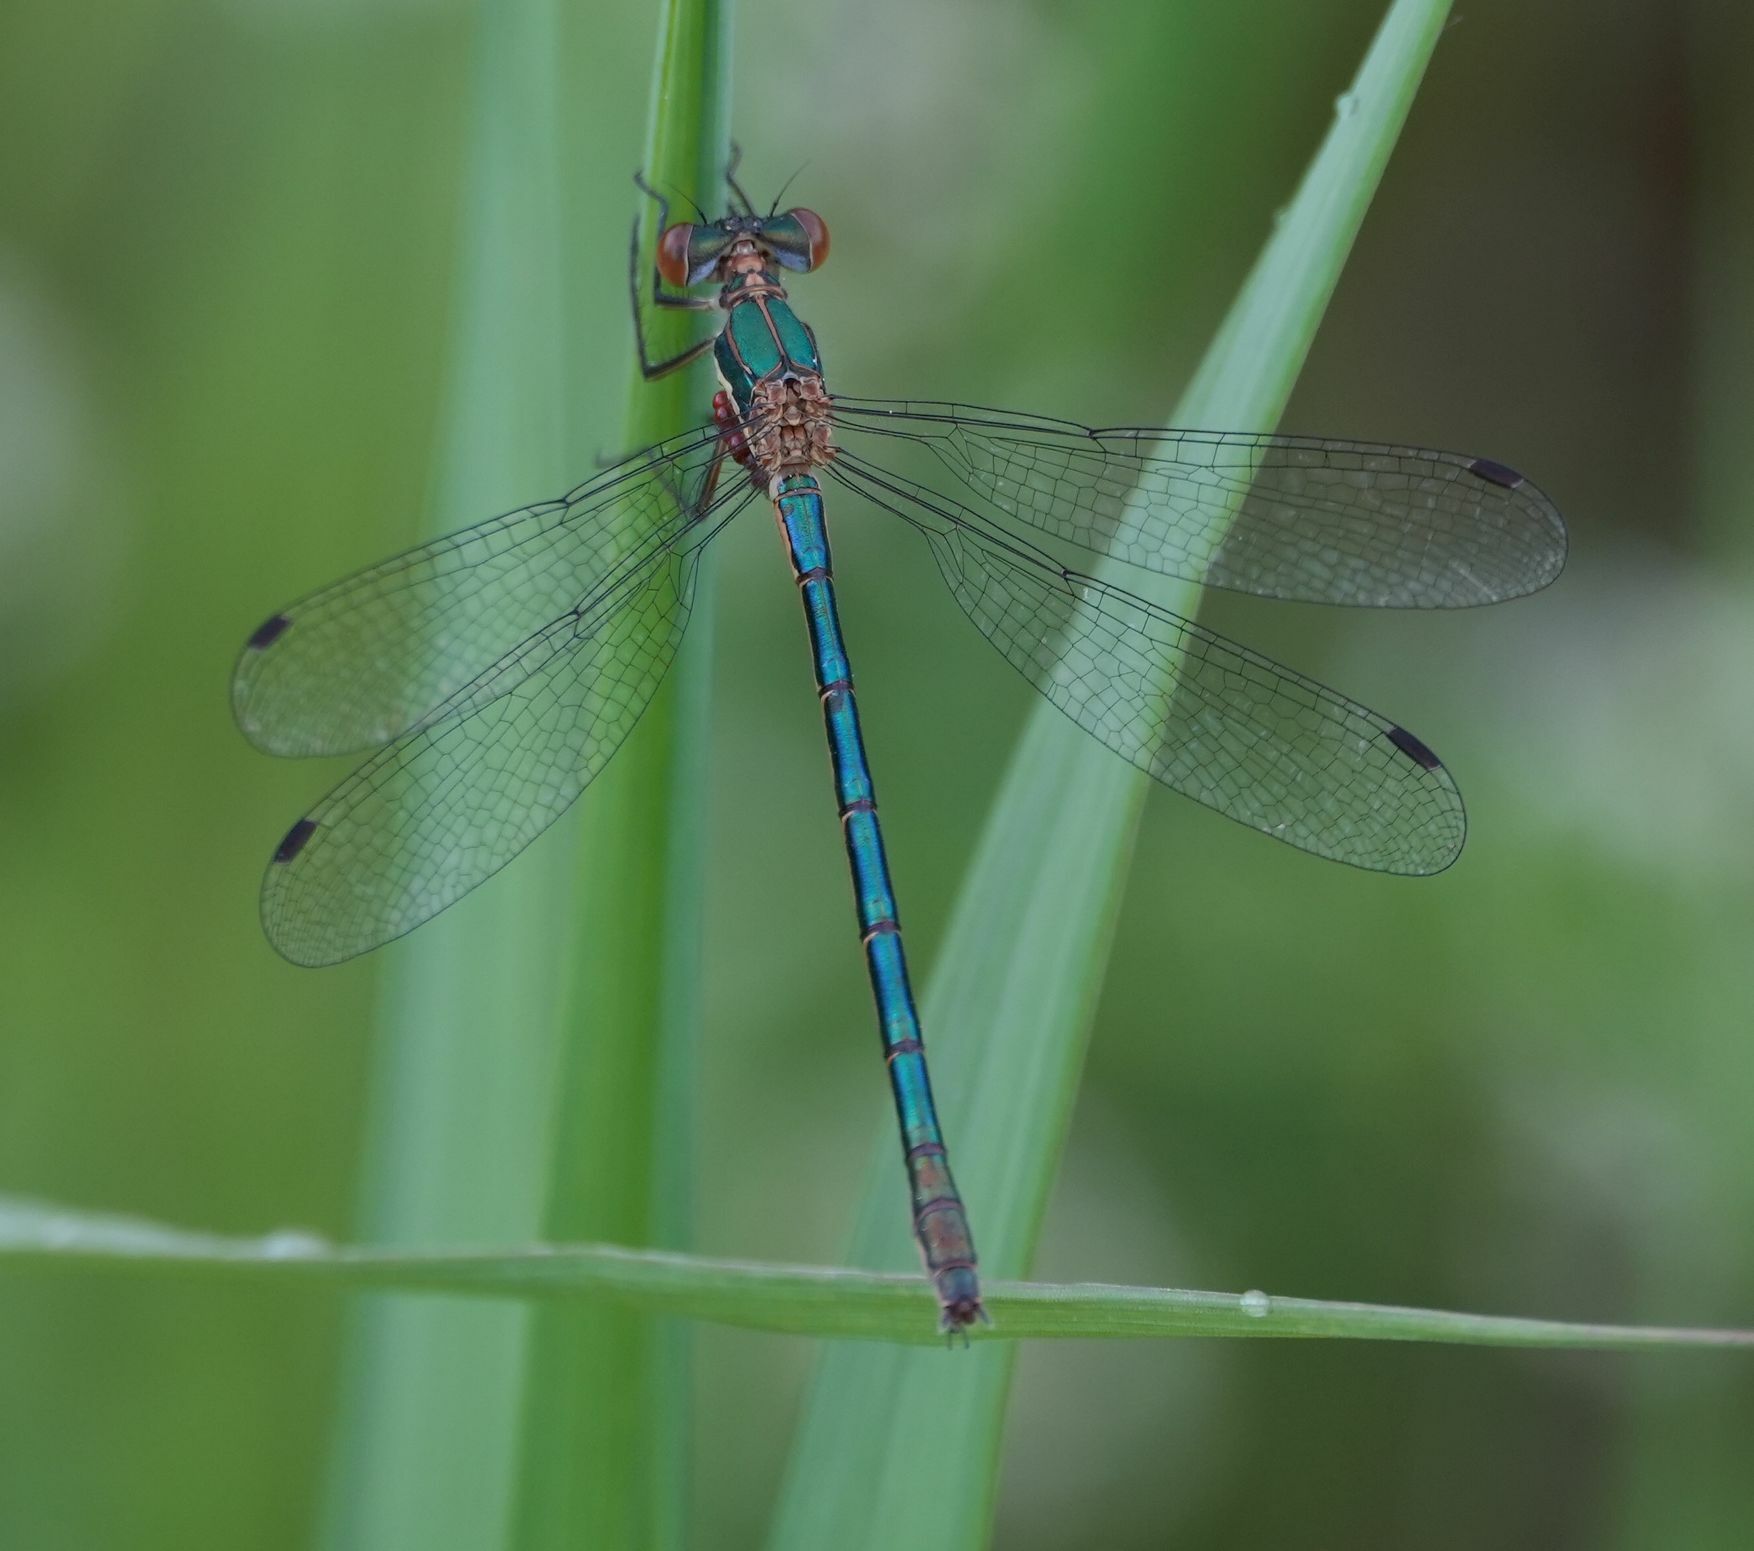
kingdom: Animalia
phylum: Arthropoda
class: Insecta
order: Odonata
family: Lestidae
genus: Lestes
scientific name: Lestes dryas
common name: Scarce emerald damselfly
